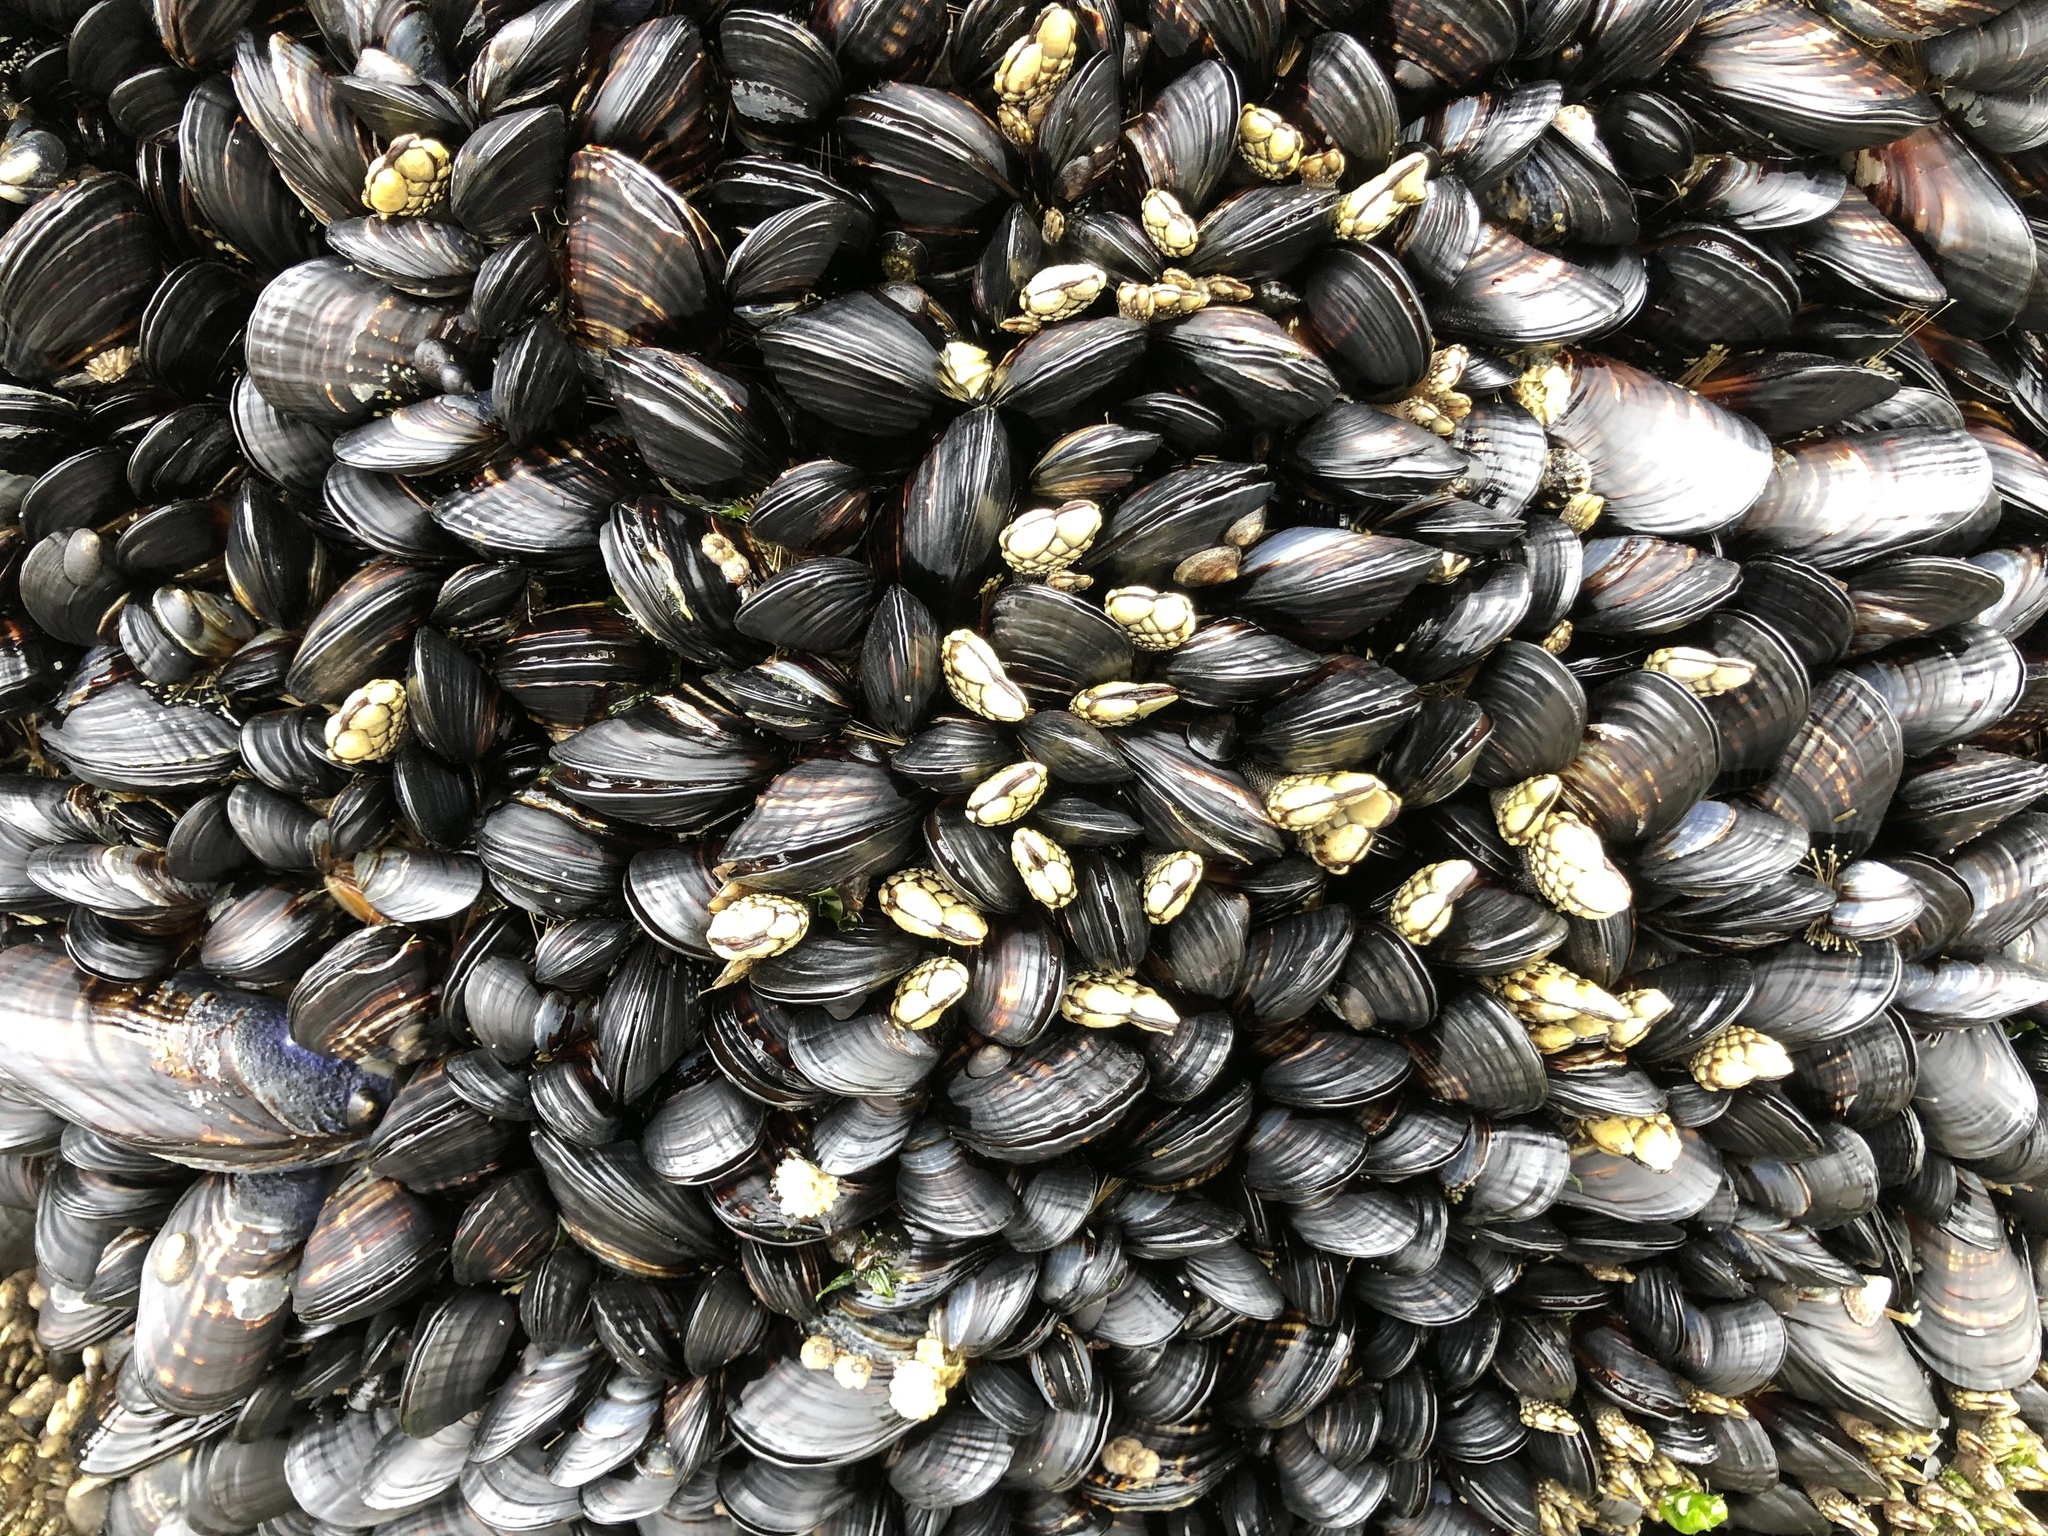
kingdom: Animalia
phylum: Mollusca
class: Bivalvia
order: Mytilida
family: Mytilidae
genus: Mytilus
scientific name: Mytilus californianus
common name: California mussel
